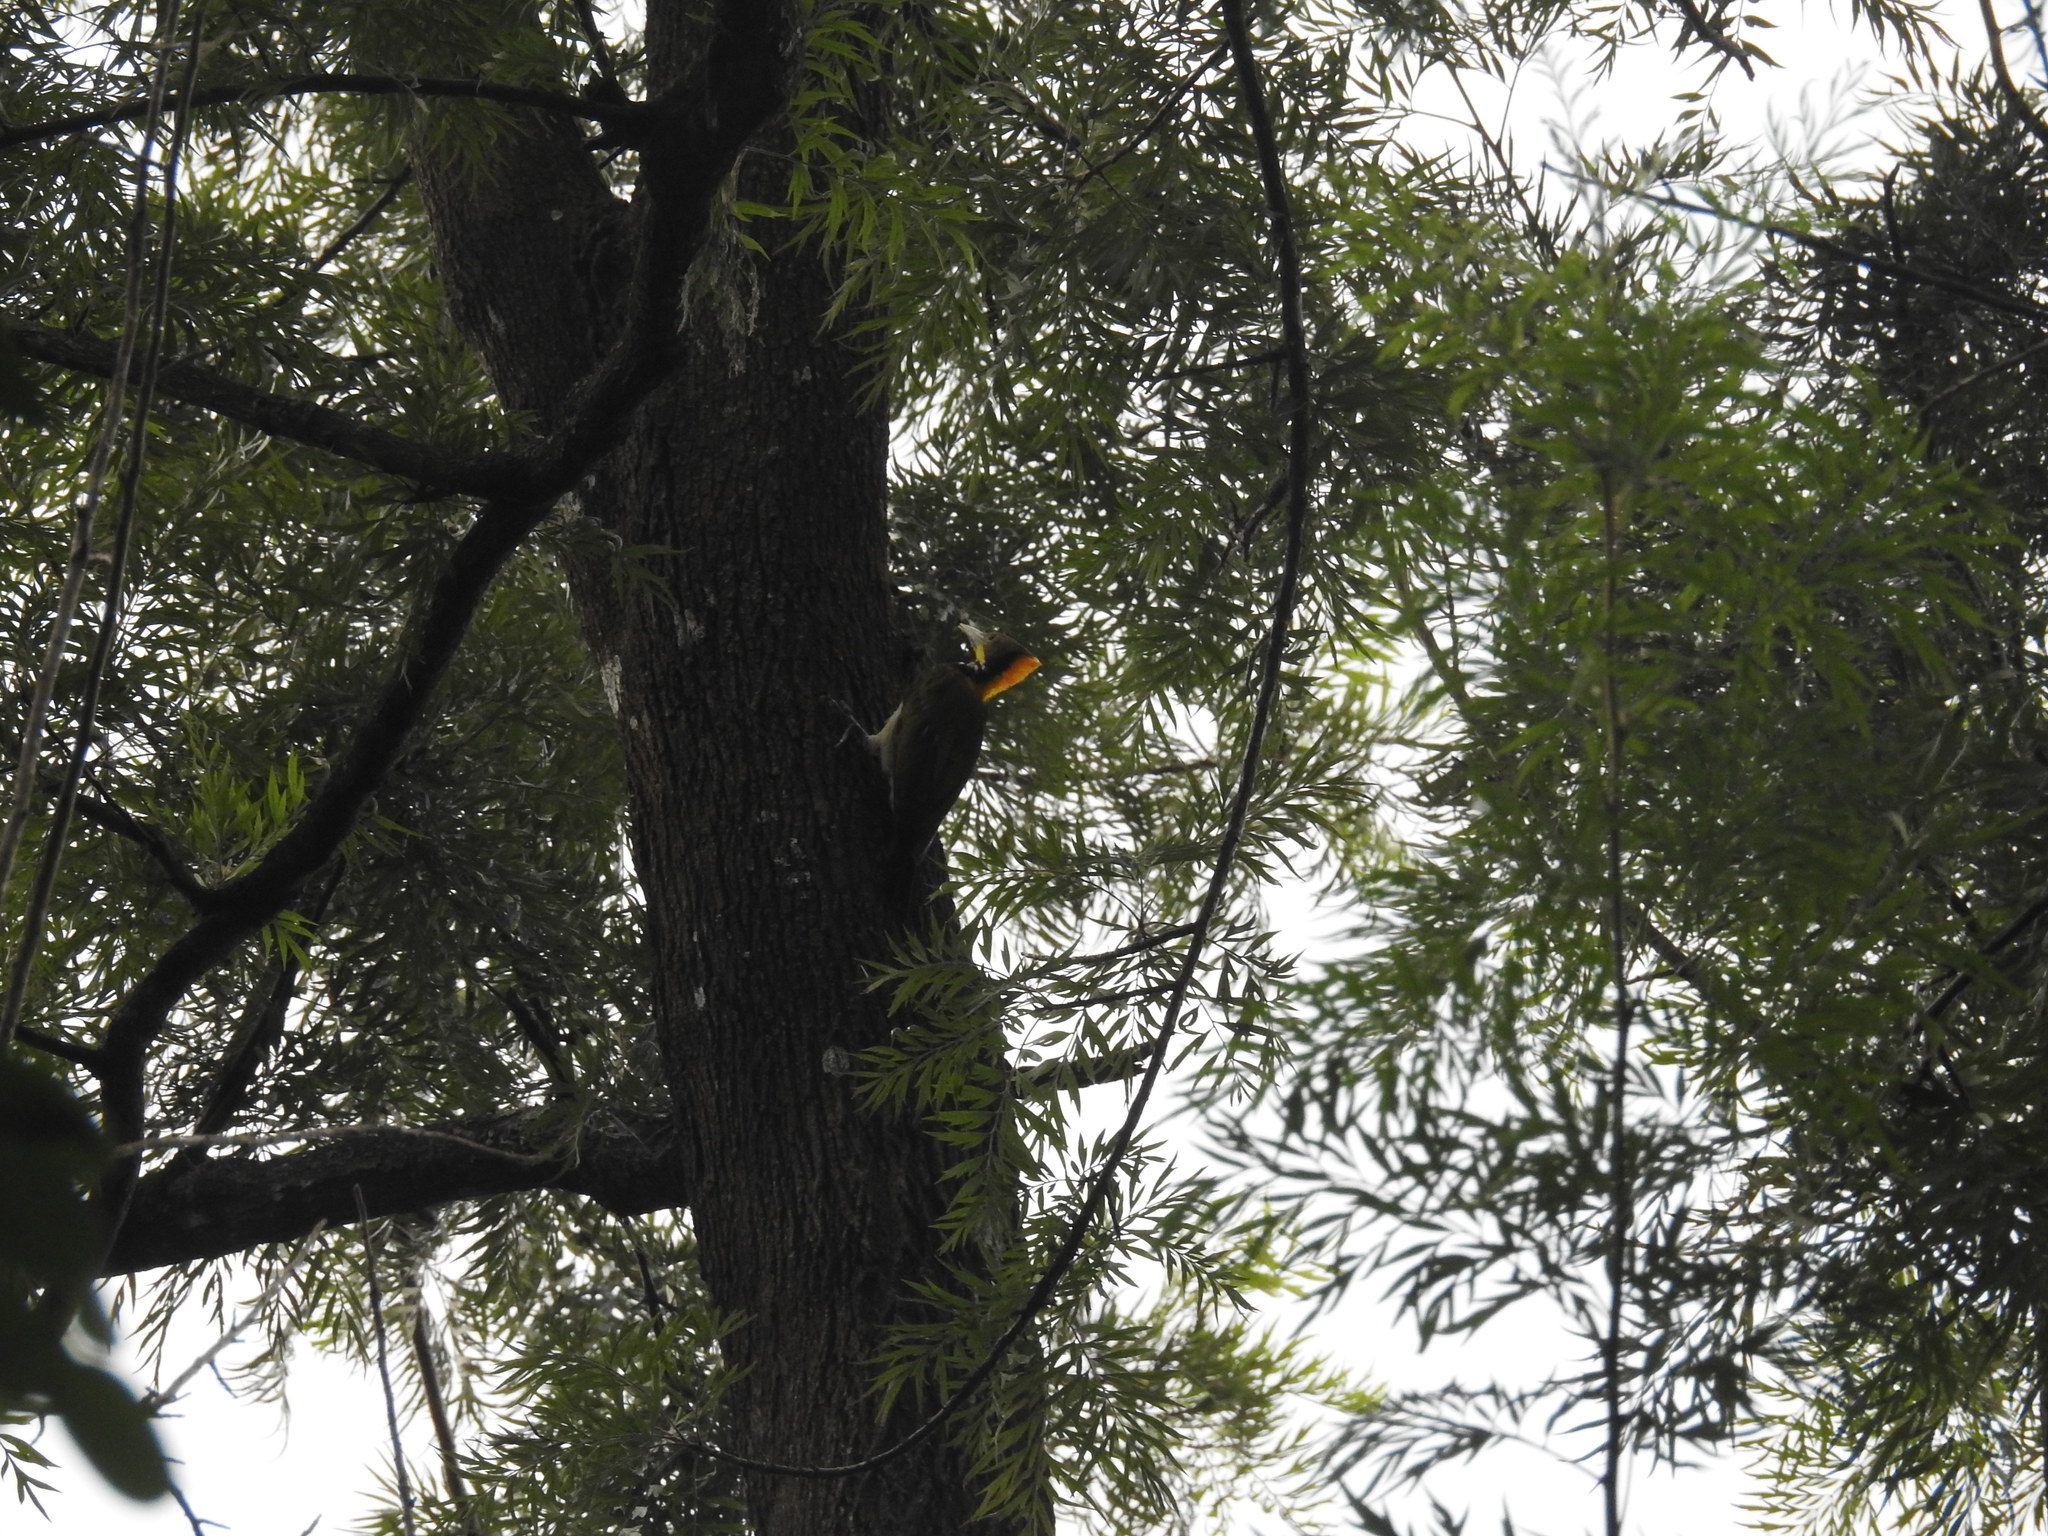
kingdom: Animalia
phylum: Chordata
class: Aves
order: Piciformes
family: Picidae
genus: Chrysophlegma
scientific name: Chrysophlegma flavinucha
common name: Greater yellownape
